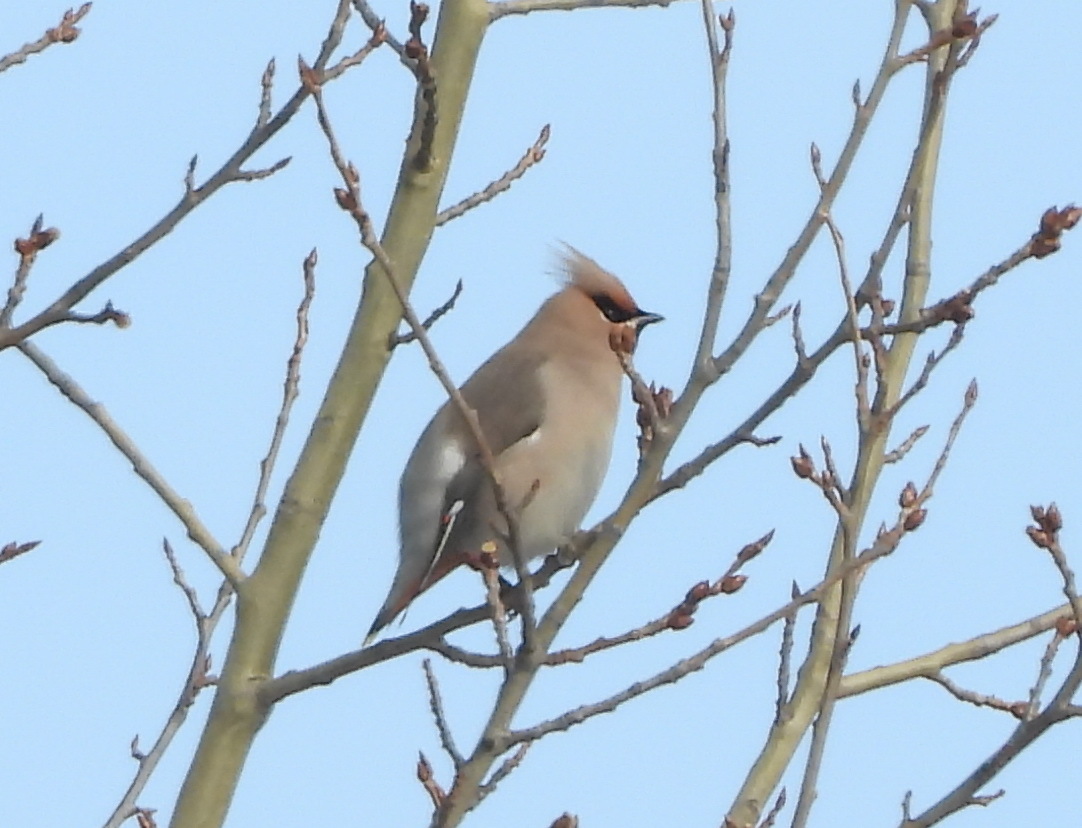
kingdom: Animalia
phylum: Chordata
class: Aves
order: Passeriformes
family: Bombycillidae
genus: Bombycilla
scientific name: Bombycilla garrulus
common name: Bohemian waxwing
